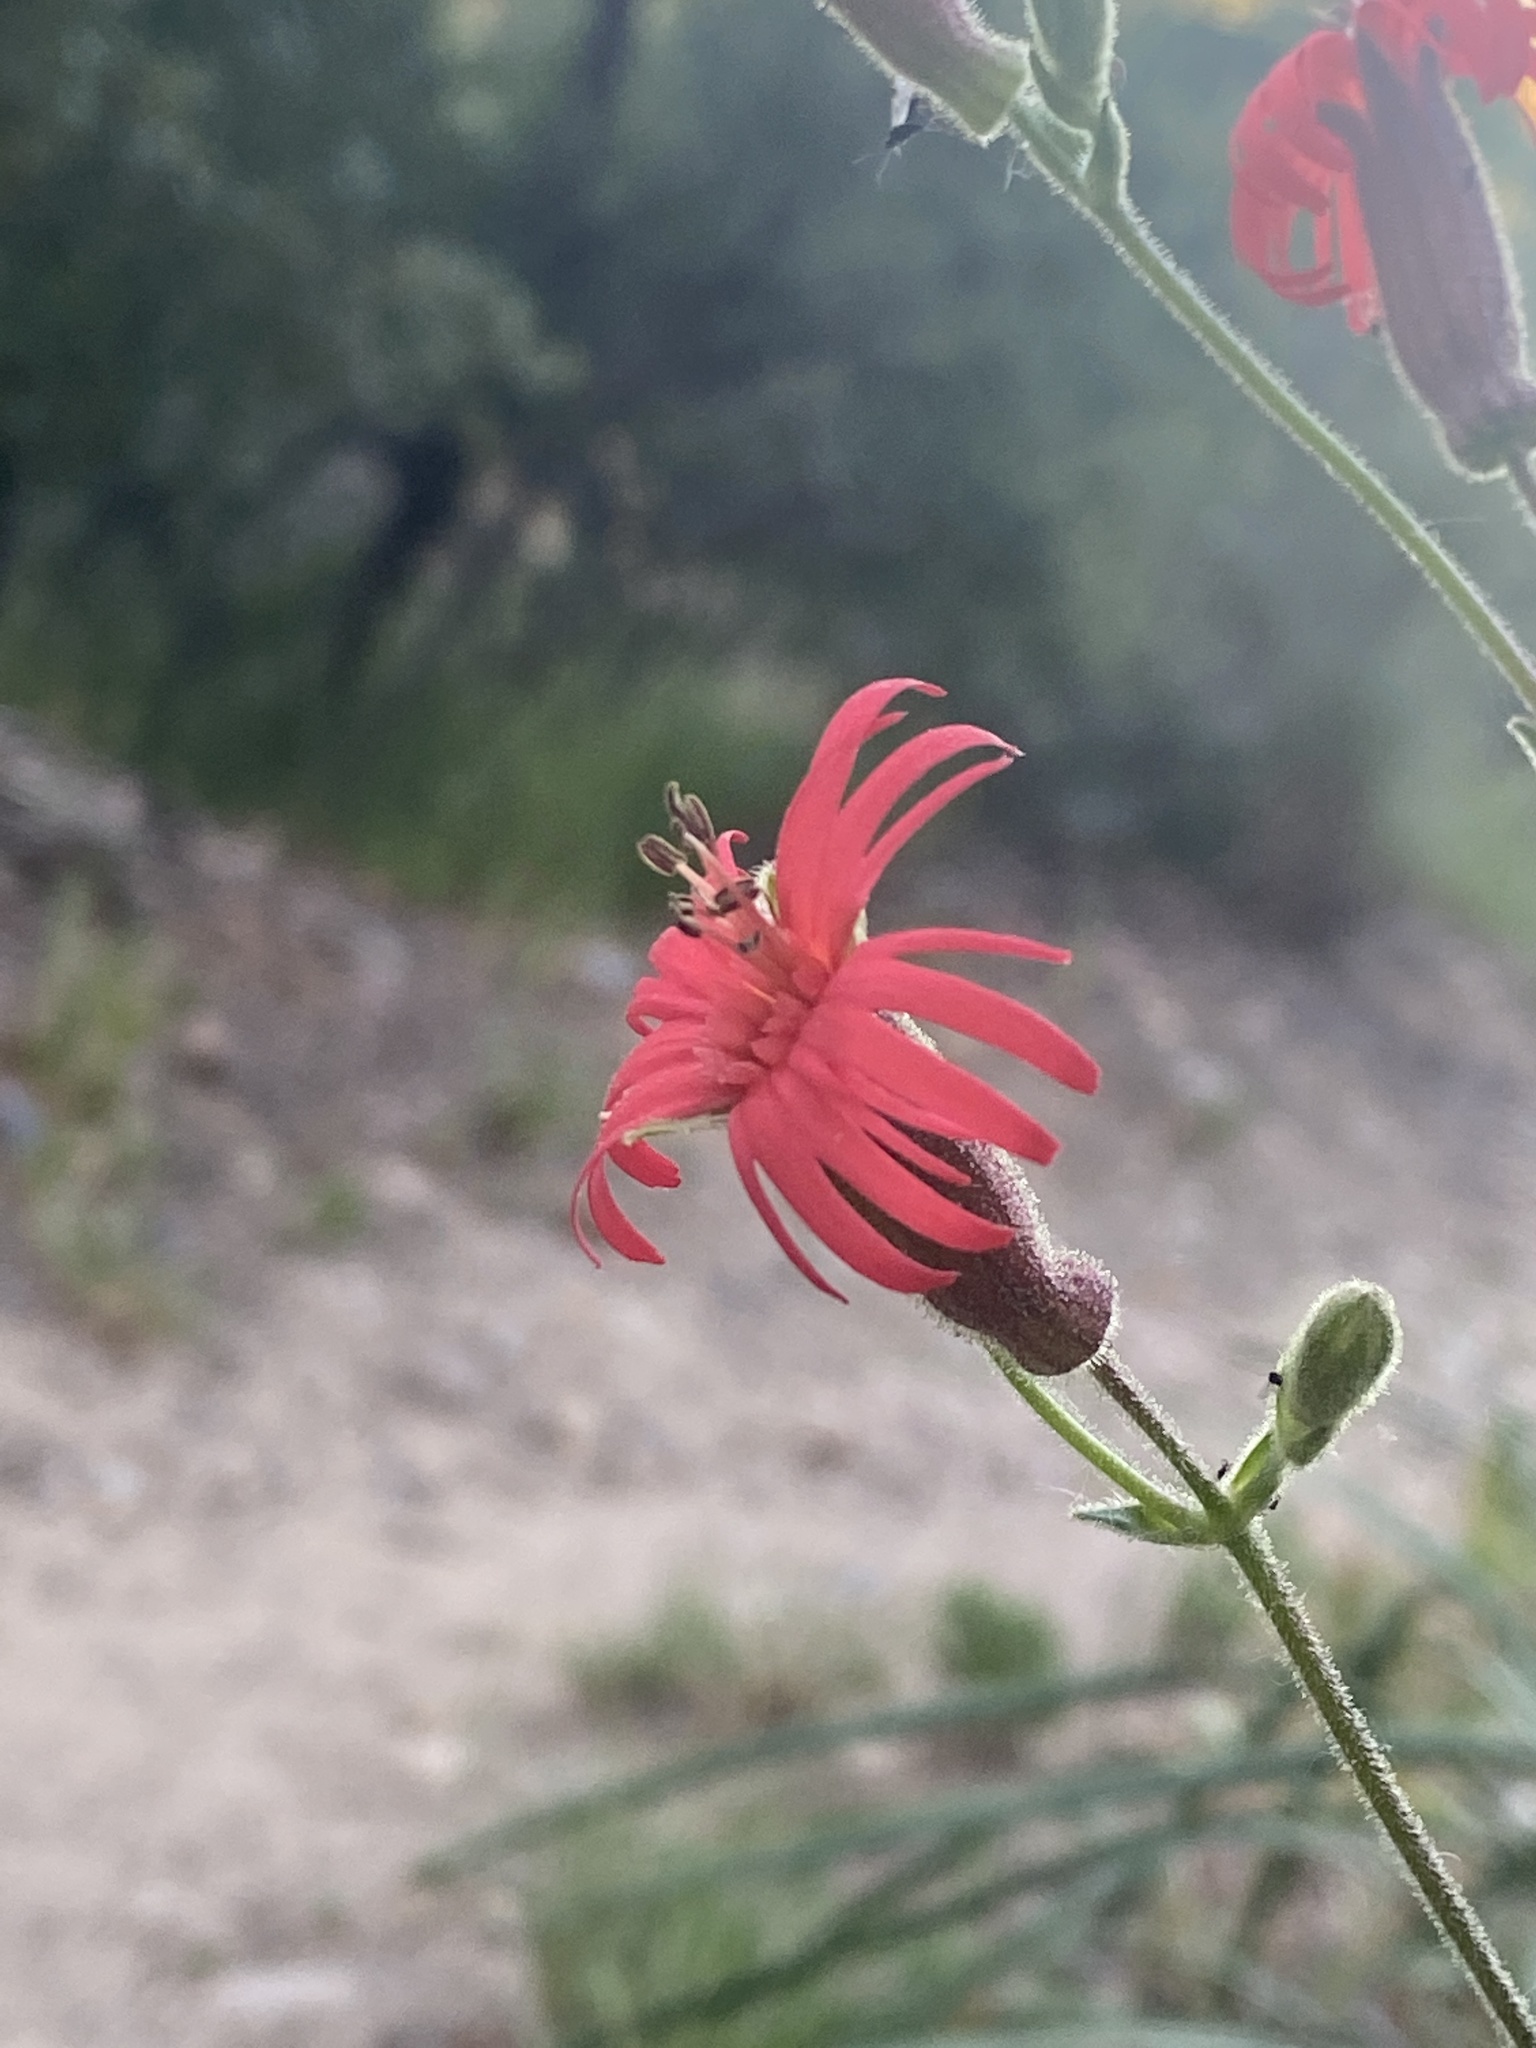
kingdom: Plantae
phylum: Tracheophyta
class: Magnoliopsida
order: Caryophyllales
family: Caryophyllaceae
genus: Silene
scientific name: Silene laciniata
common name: Indian-pink
